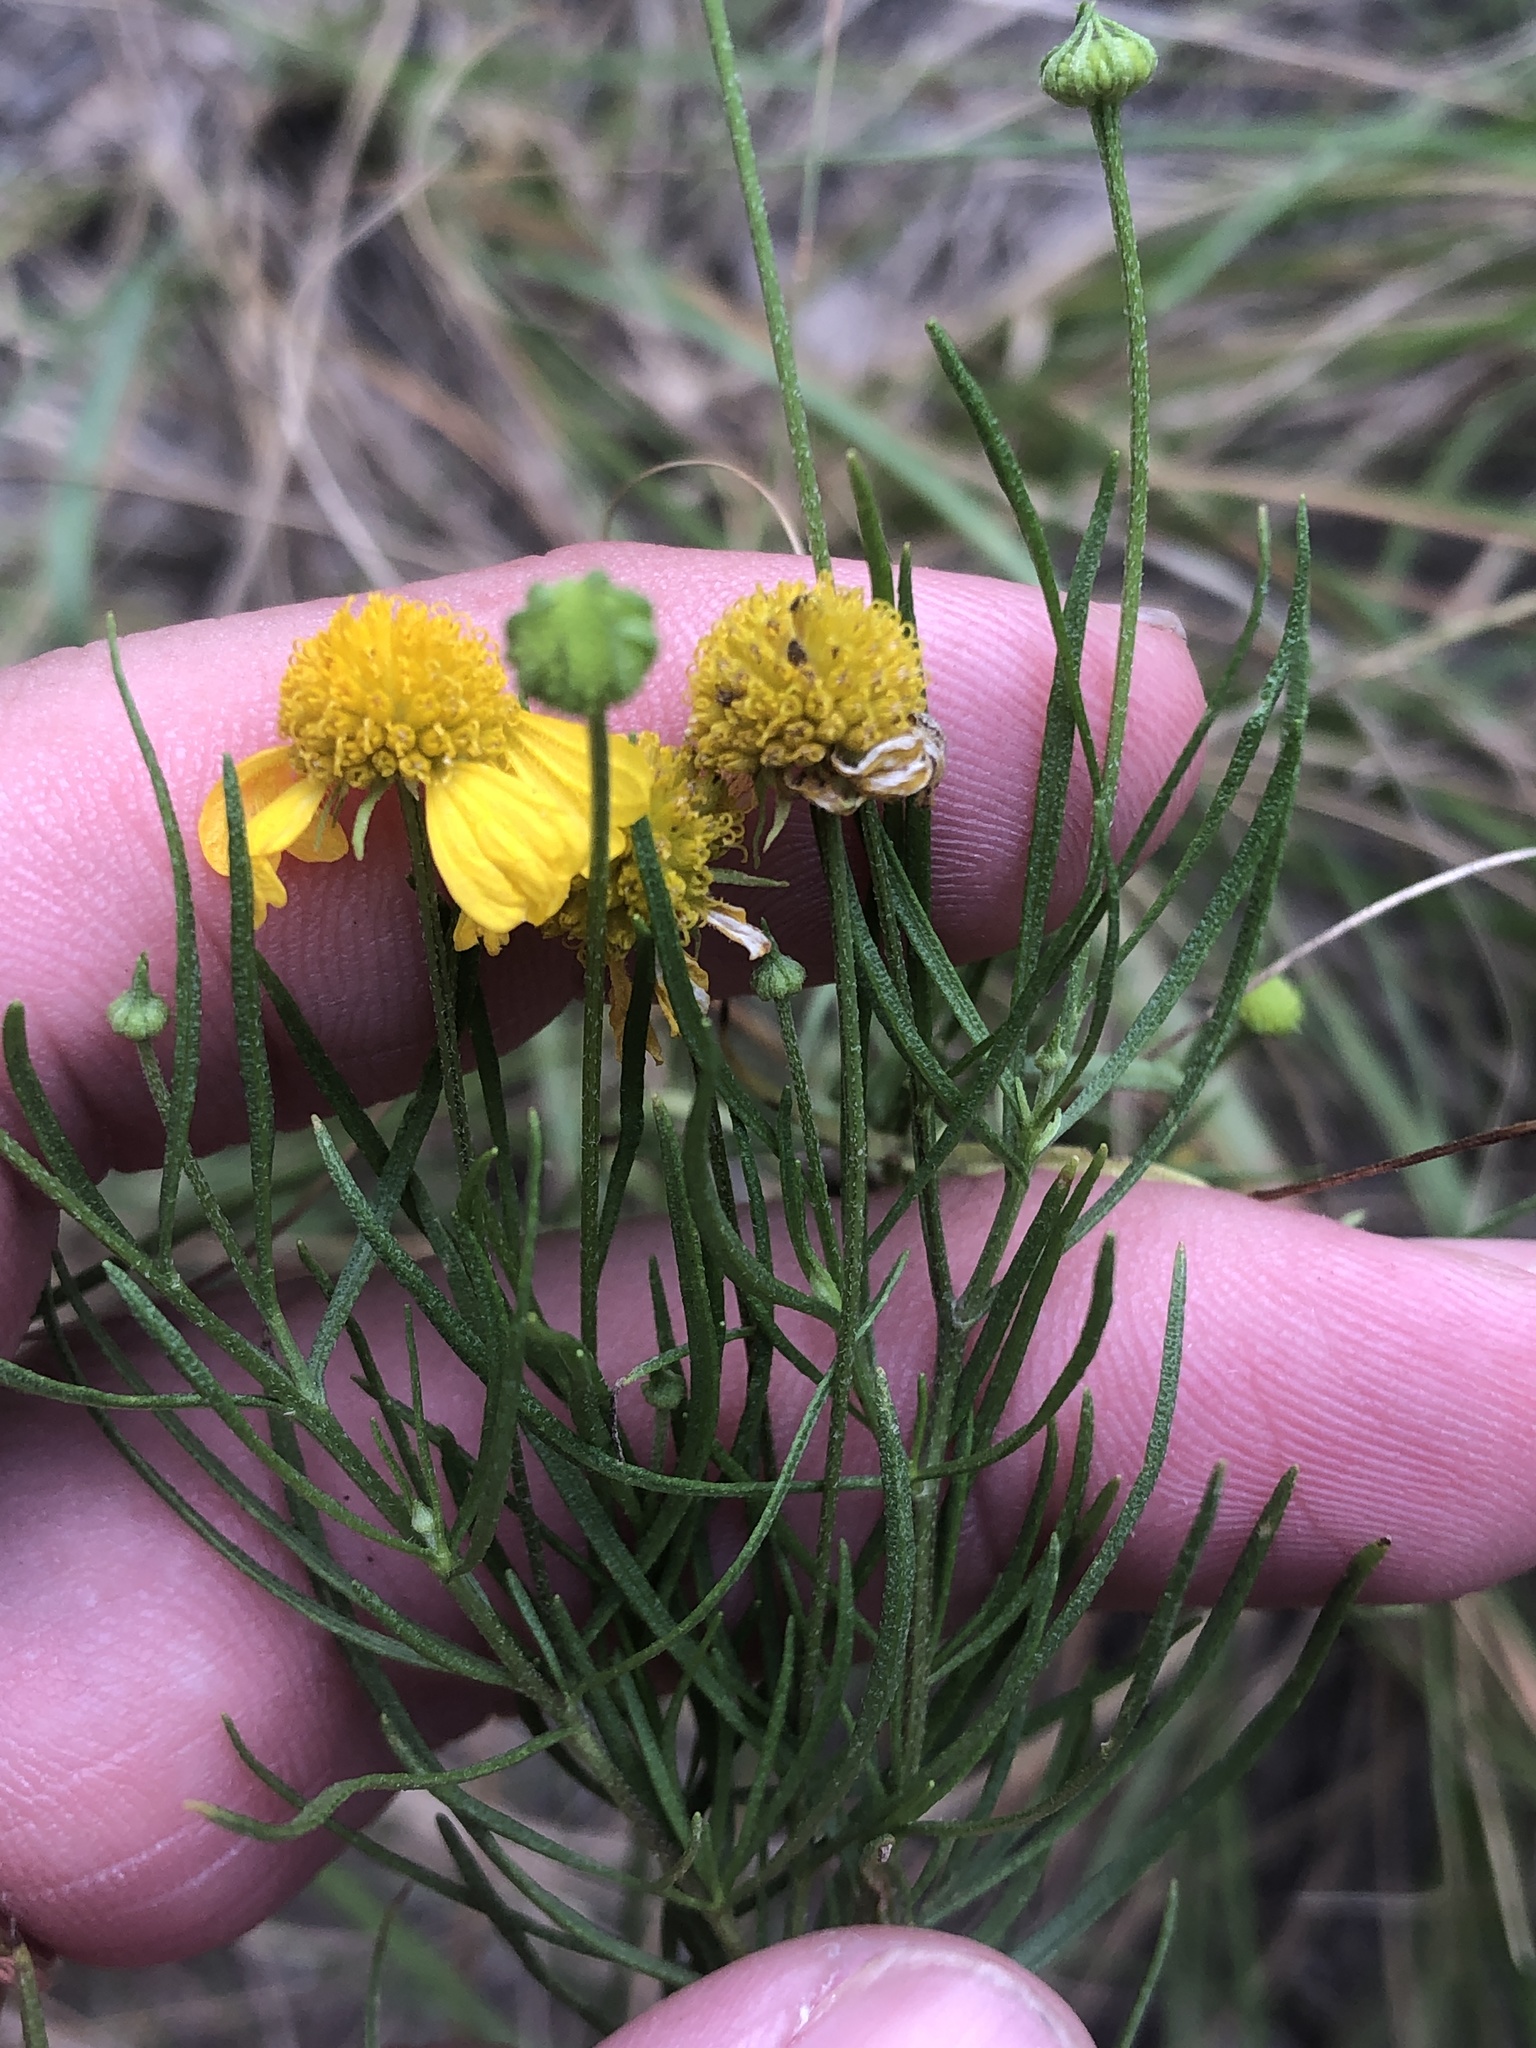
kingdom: Plantae
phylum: Tracheophyta
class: Magnoliopsida
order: Asterales
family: Asteraceae
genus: Helenium
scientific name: Helenium amarum
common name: Bitter sneezeweed
